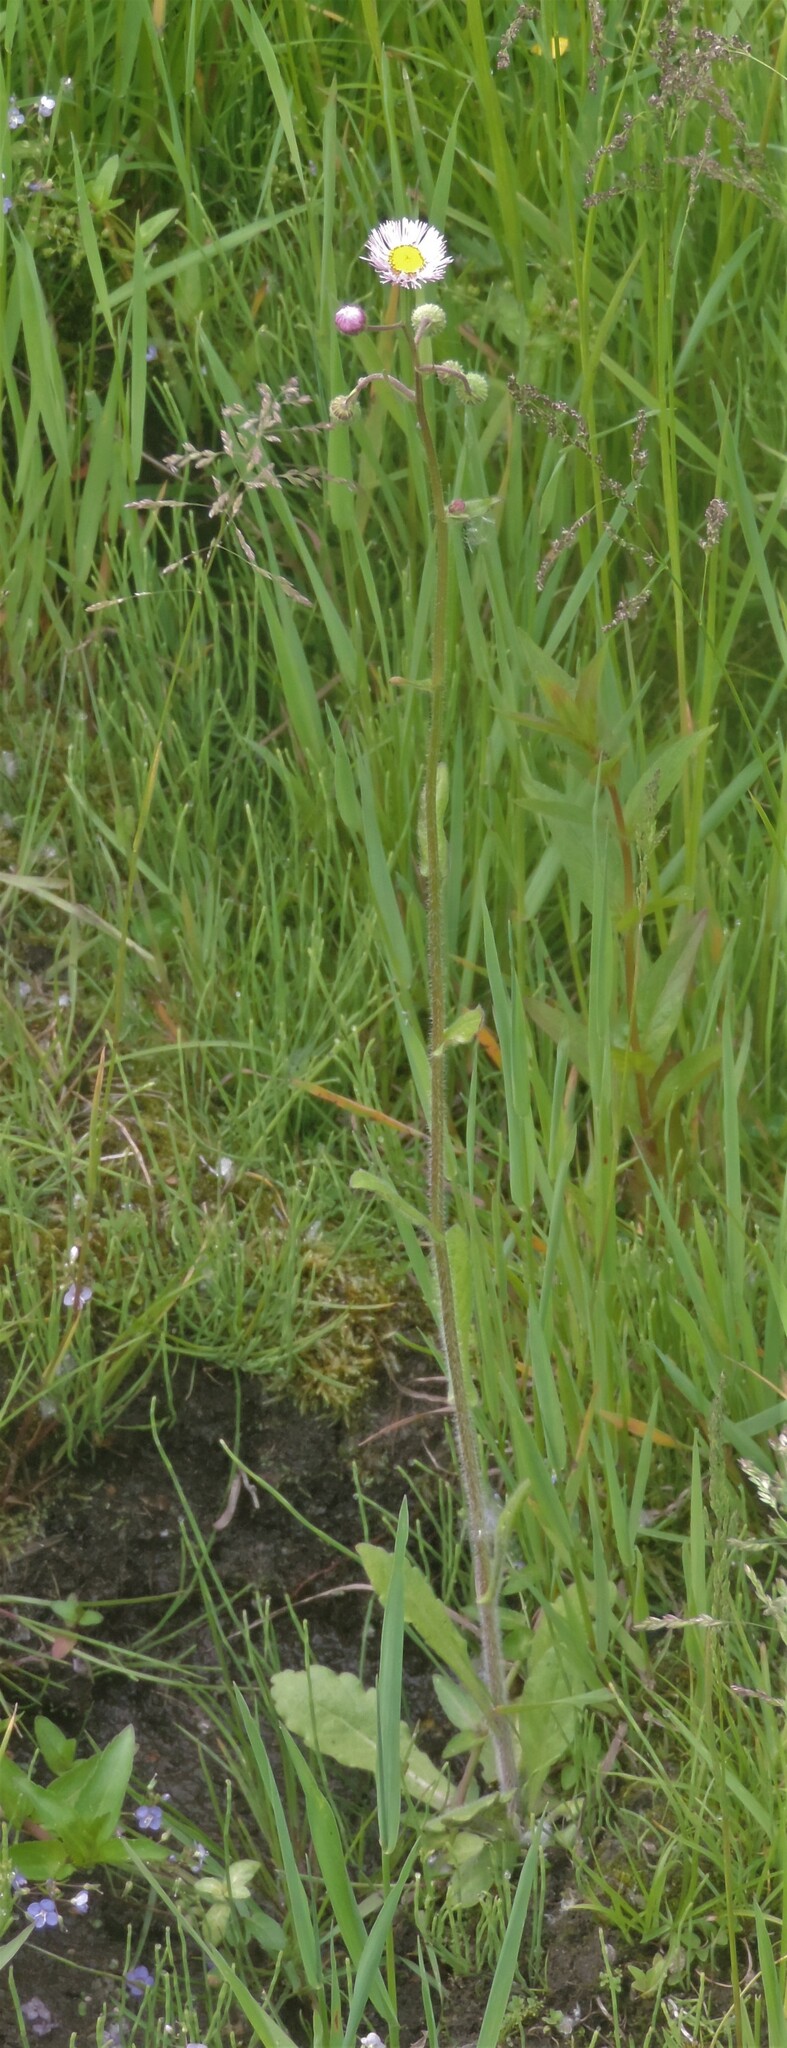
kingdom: Plantae
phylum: Tracheophyta
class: Magnoliopsida
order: Asterales
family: Asteraceae
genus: Erigeron
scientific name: Erigeron philadelphicus
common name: Robin's-plantain
